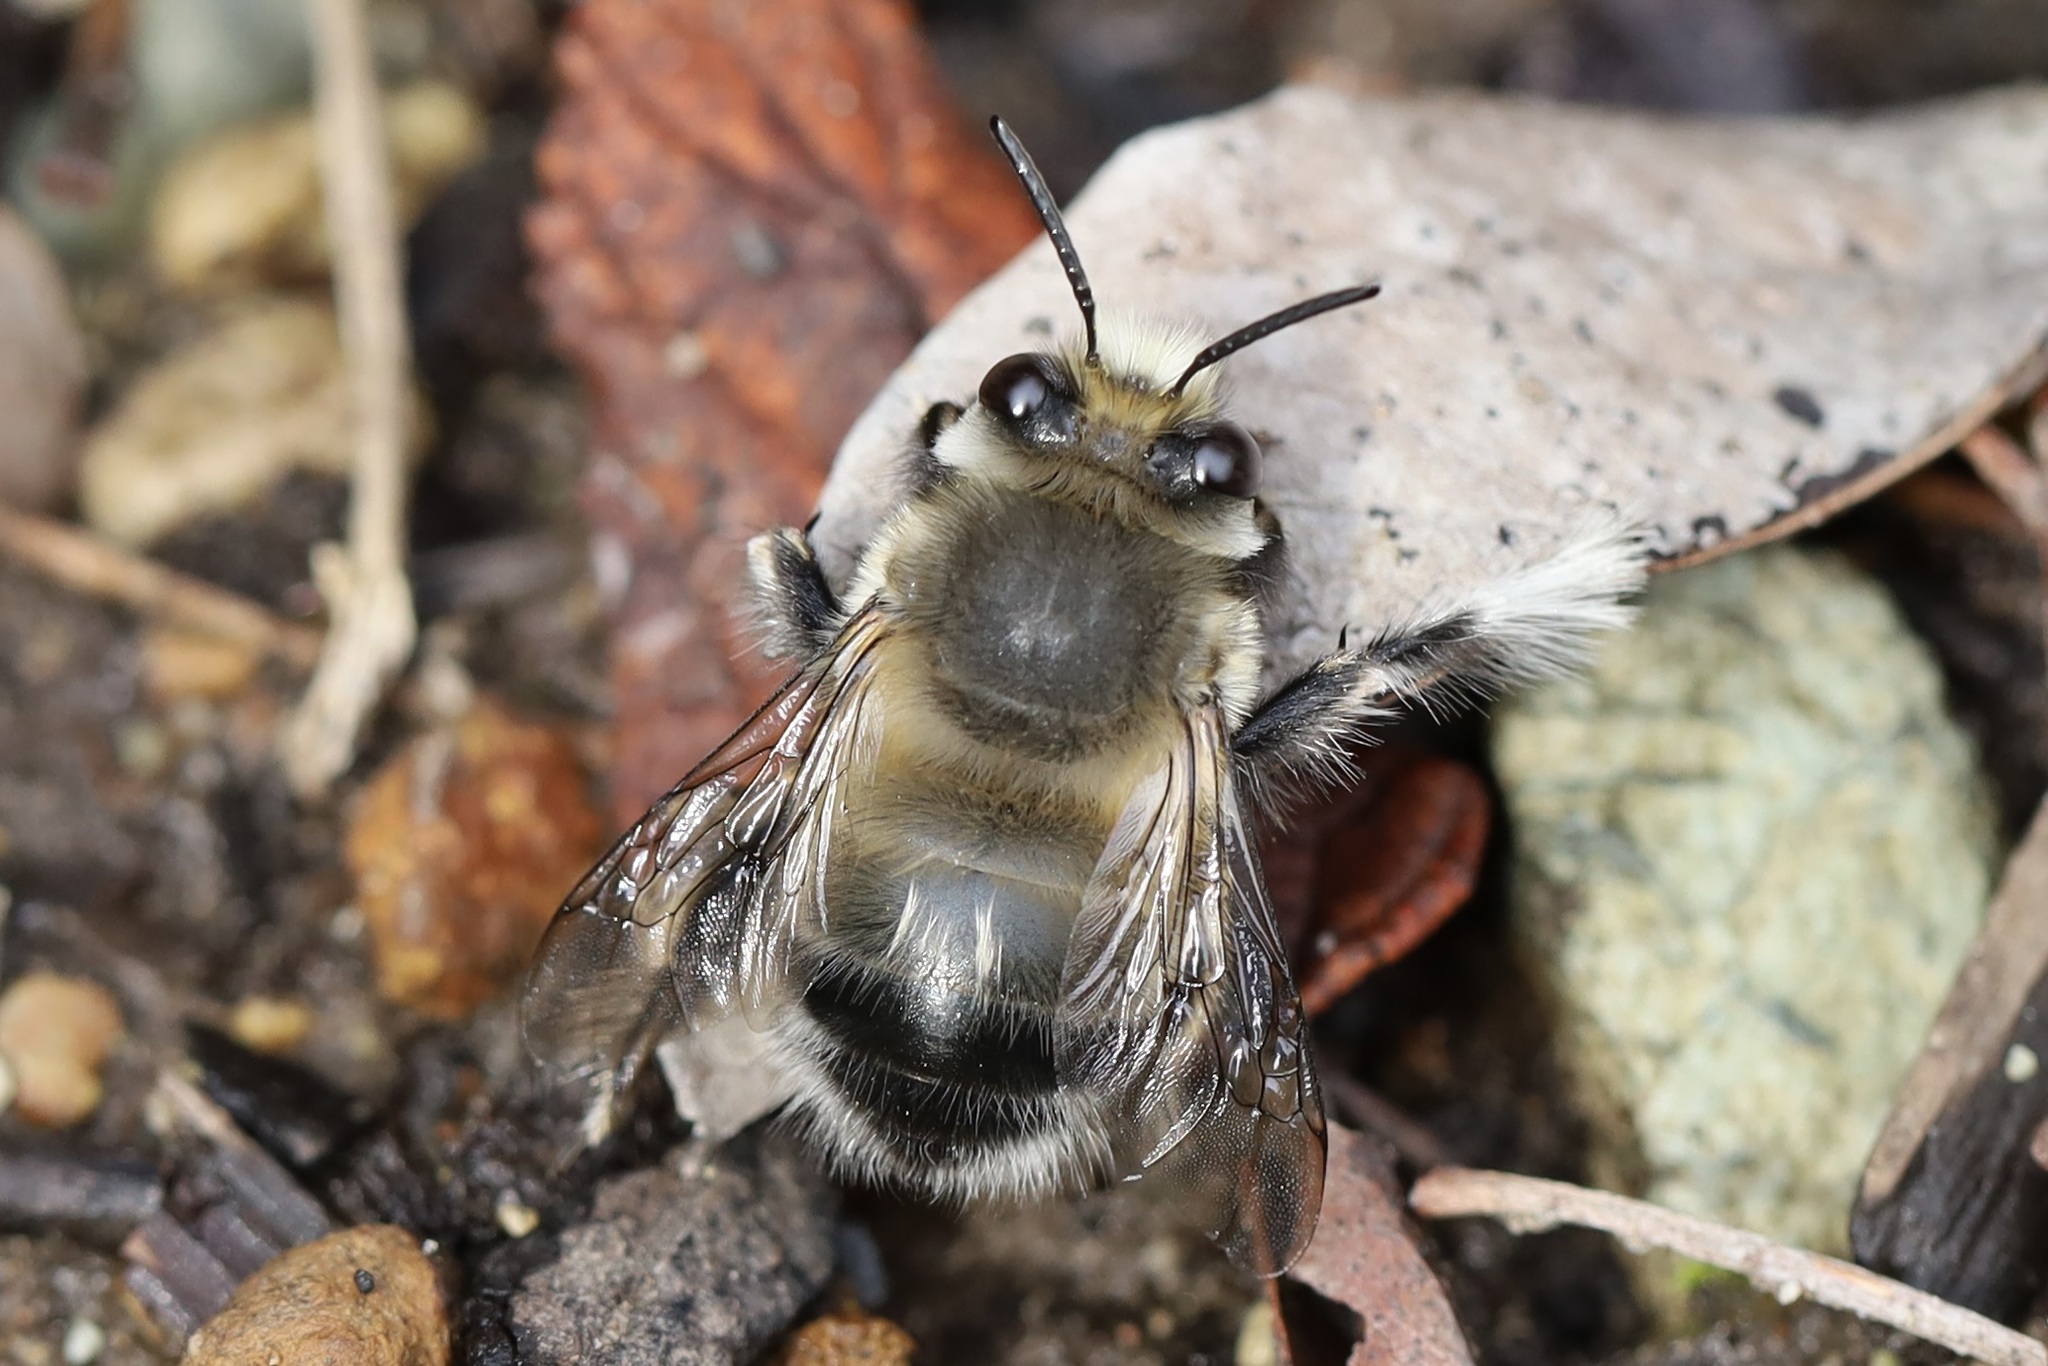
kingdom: Animalia
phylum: Arthropoda
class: Insecta
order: Hymenoptera
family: Apidae
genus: Anthophora
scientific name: Anthophora pacifica
